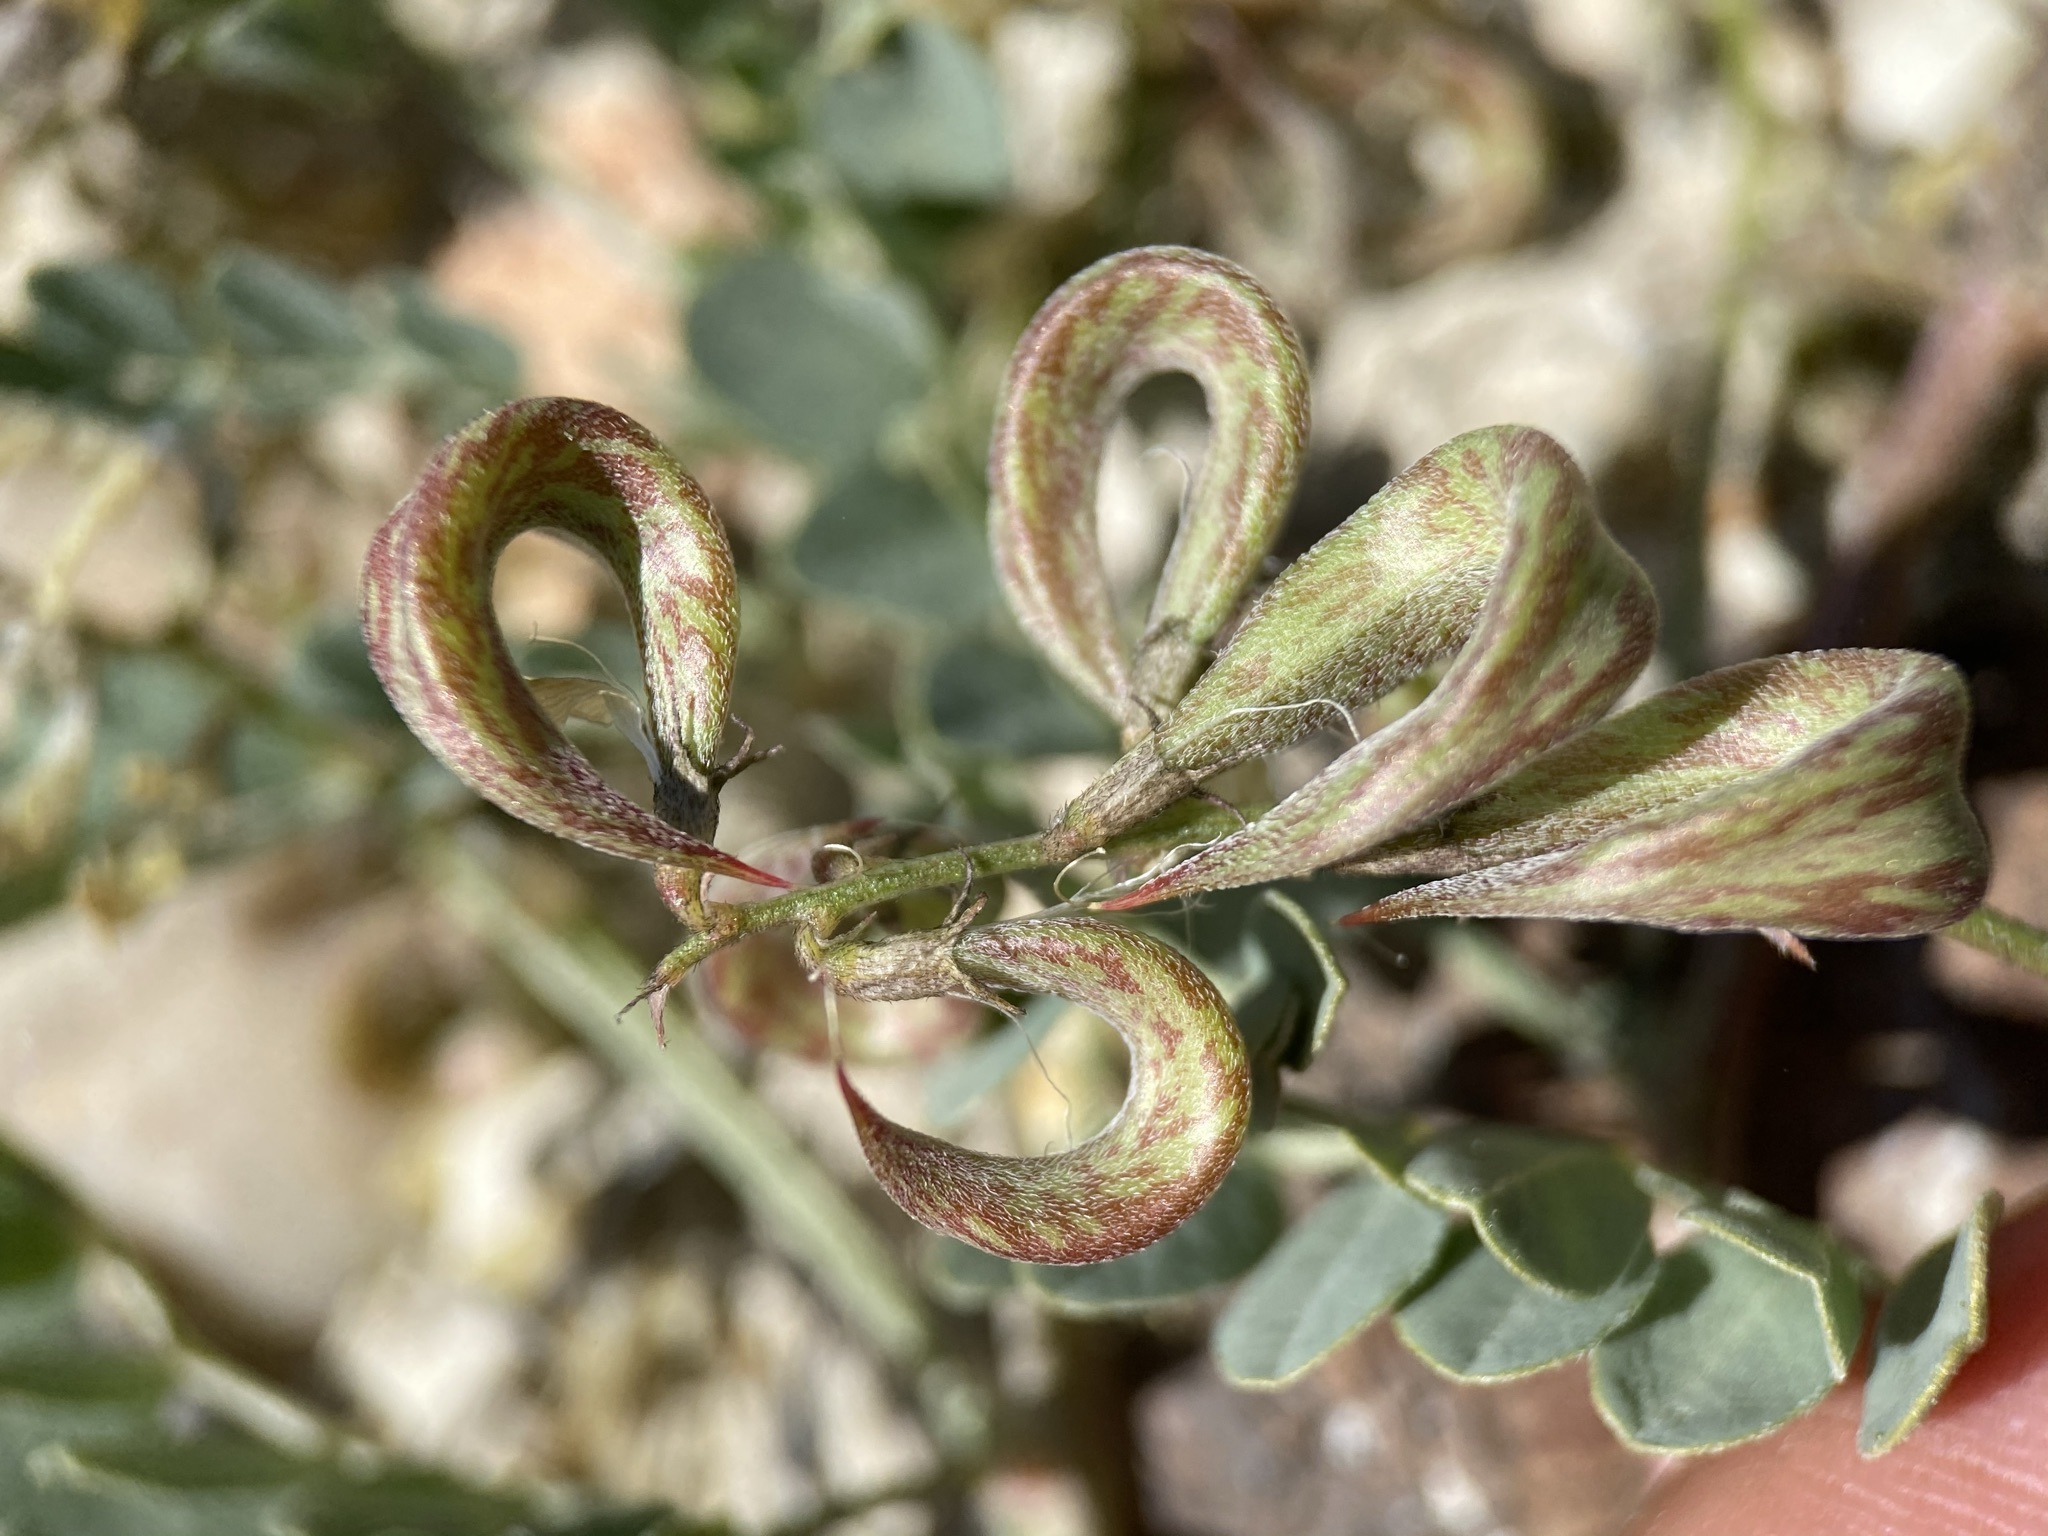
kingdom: Plantae
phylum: Tracheophyta
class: Magnoliopsida
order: Fabales
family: Fabaceae
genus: Astragalus
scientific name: Astragalus lentiginosus
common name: Freckled milkvetch
